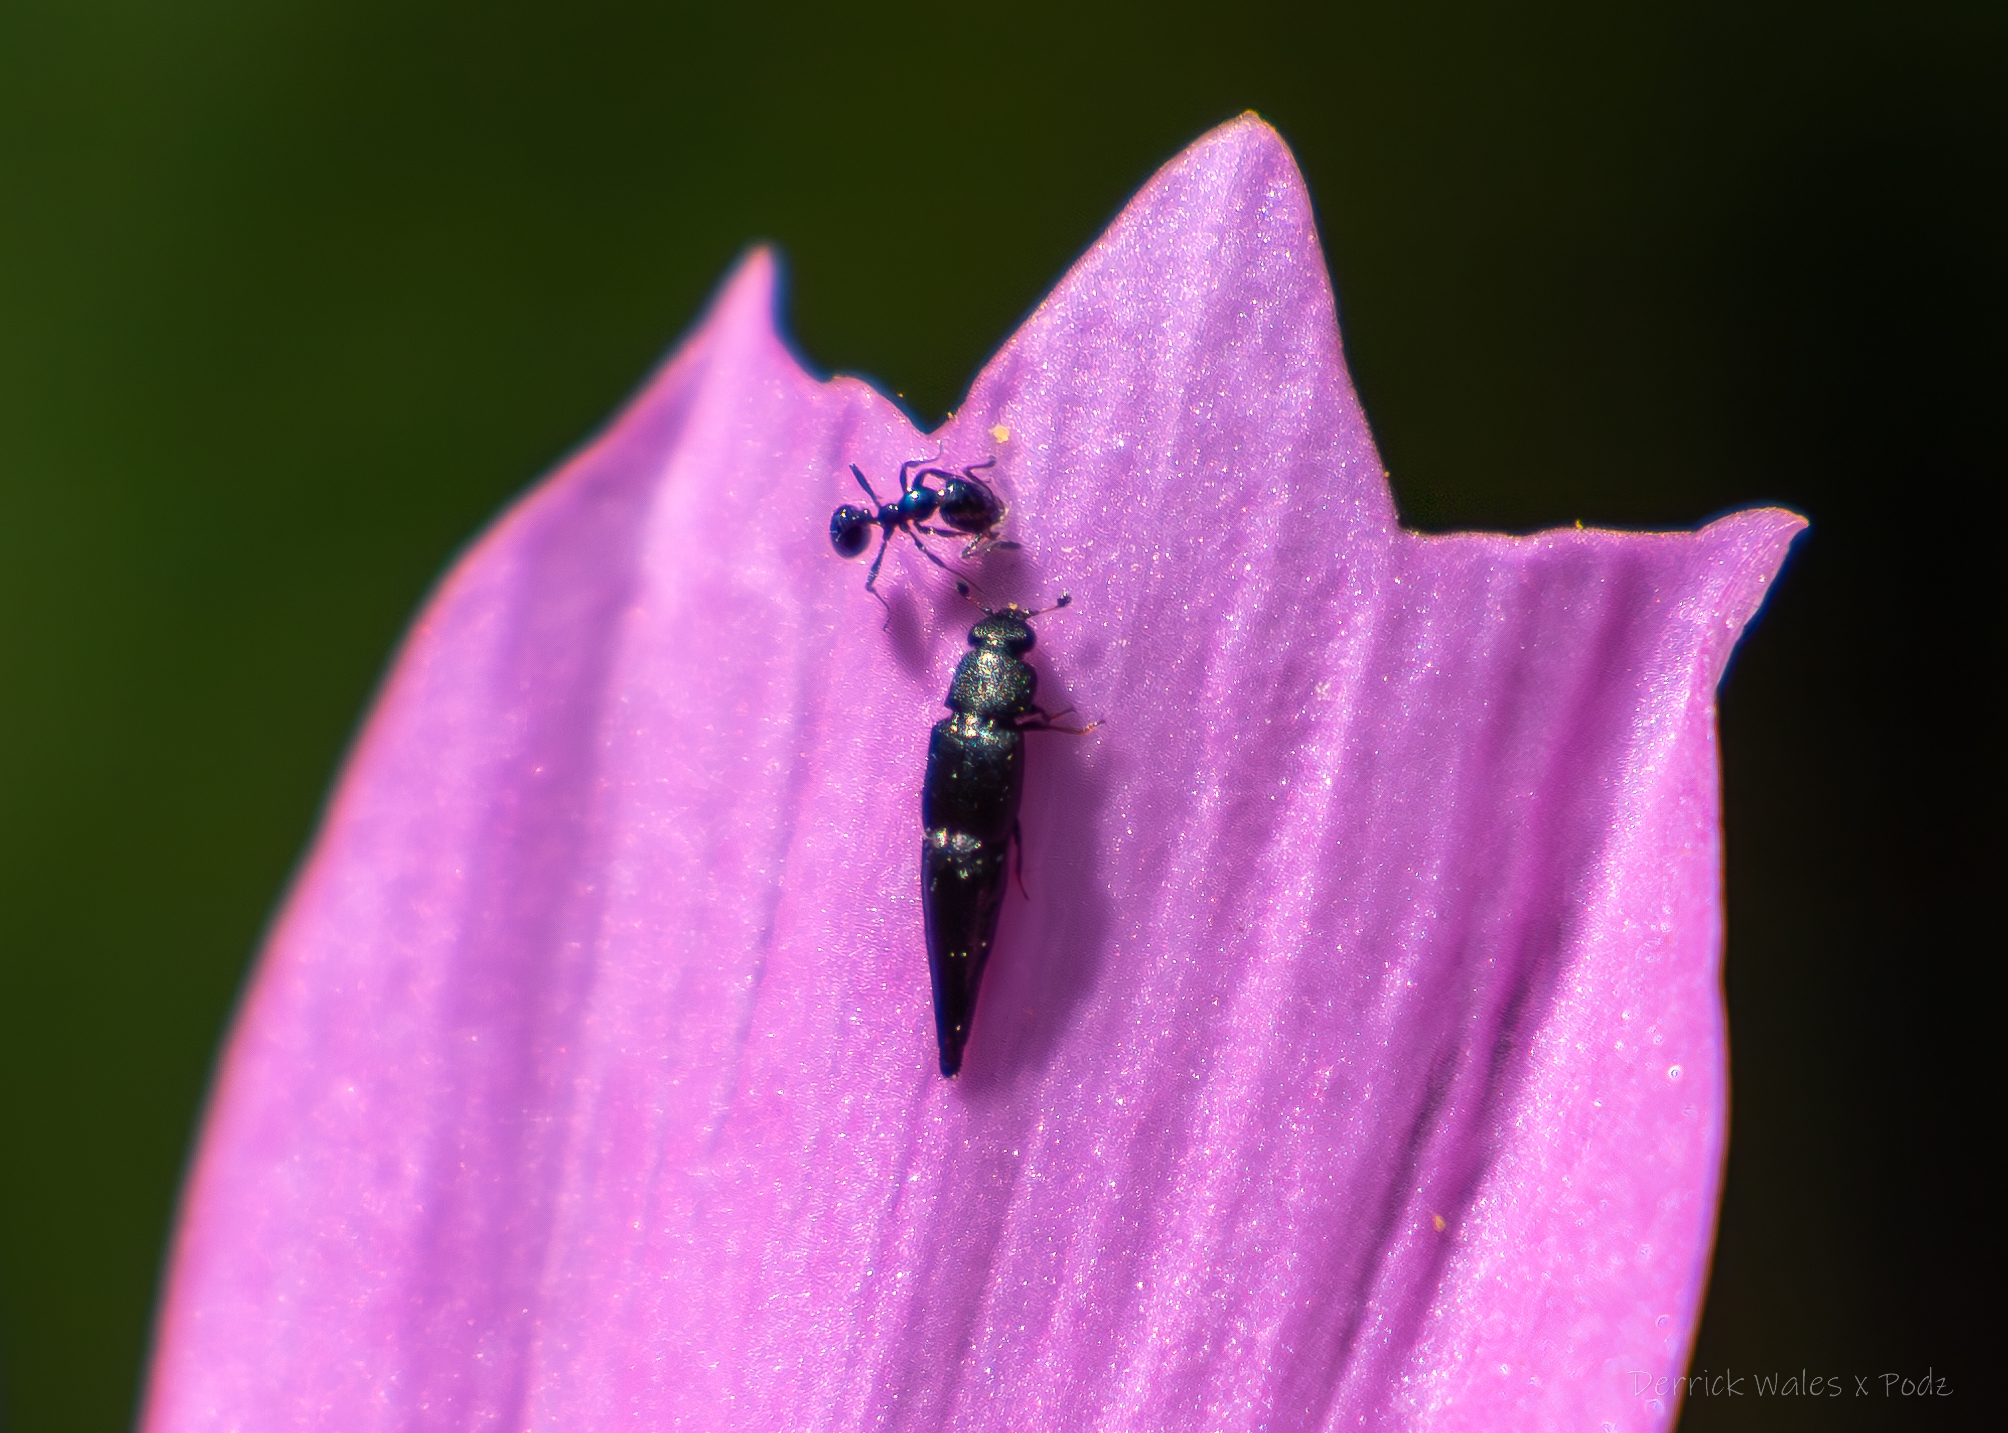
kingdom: Animalia
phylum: Arthropoda
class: Insecta
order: Hymenoptera
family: Formicidae
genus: Monomorium
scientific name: Monomorium minimum
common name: Little black ant
